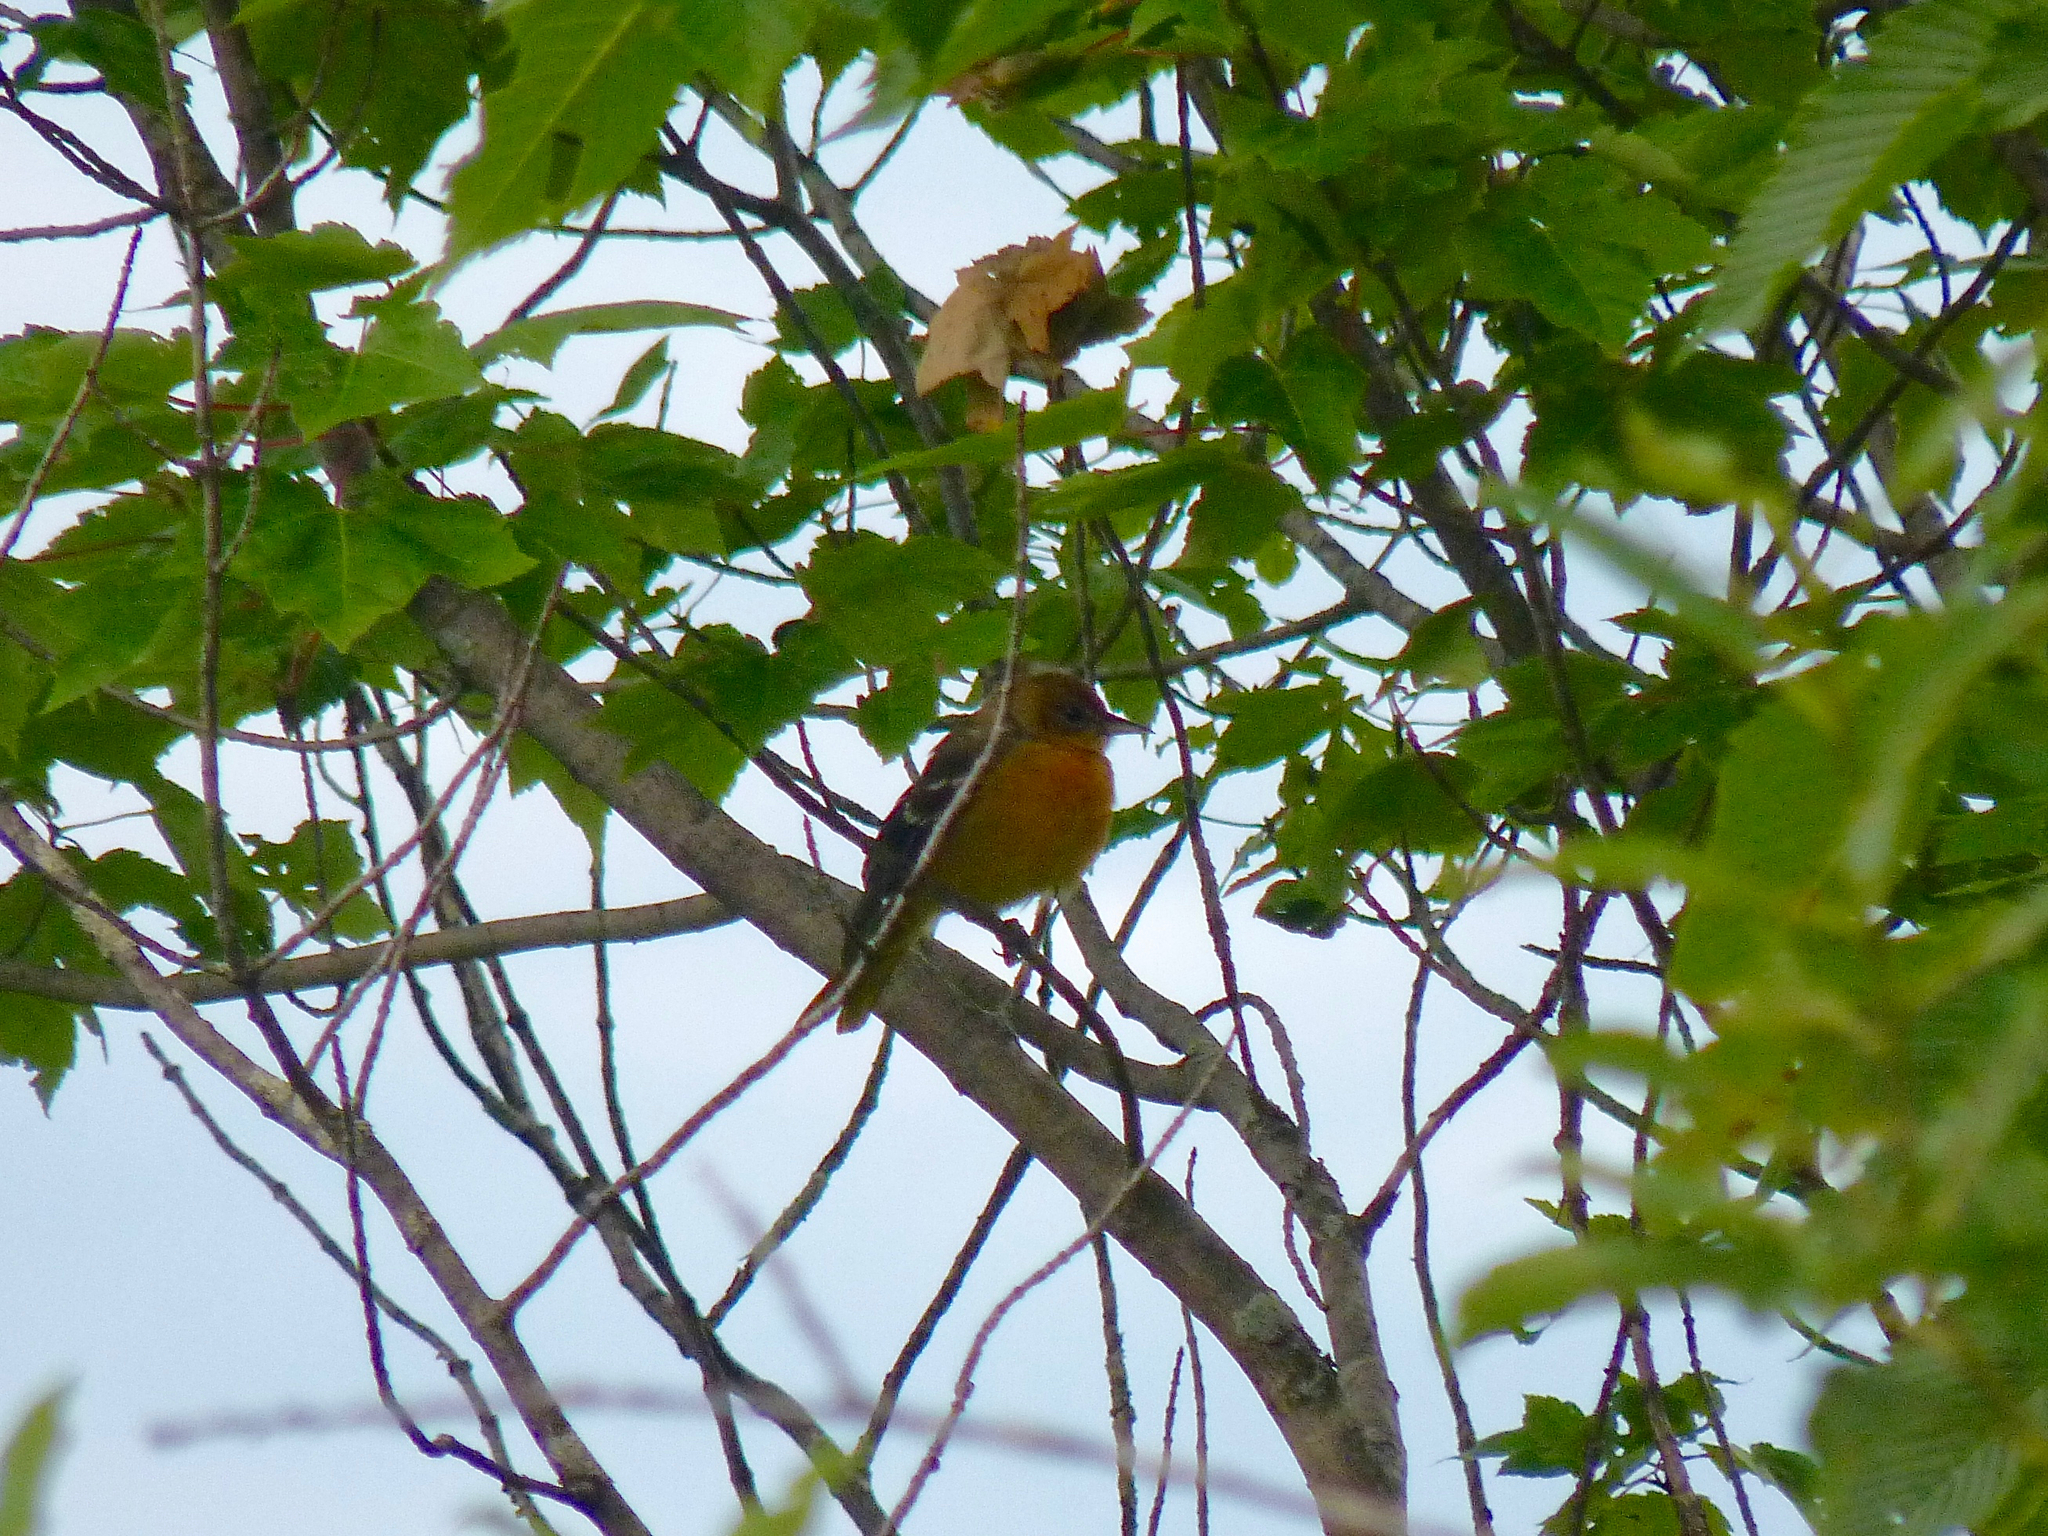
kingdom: Animalia
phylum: Chordata
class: Aves
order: Passeriformes
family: Icteridae
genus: Icterus
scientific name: Icterus galbula
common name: Baltimore oriole
